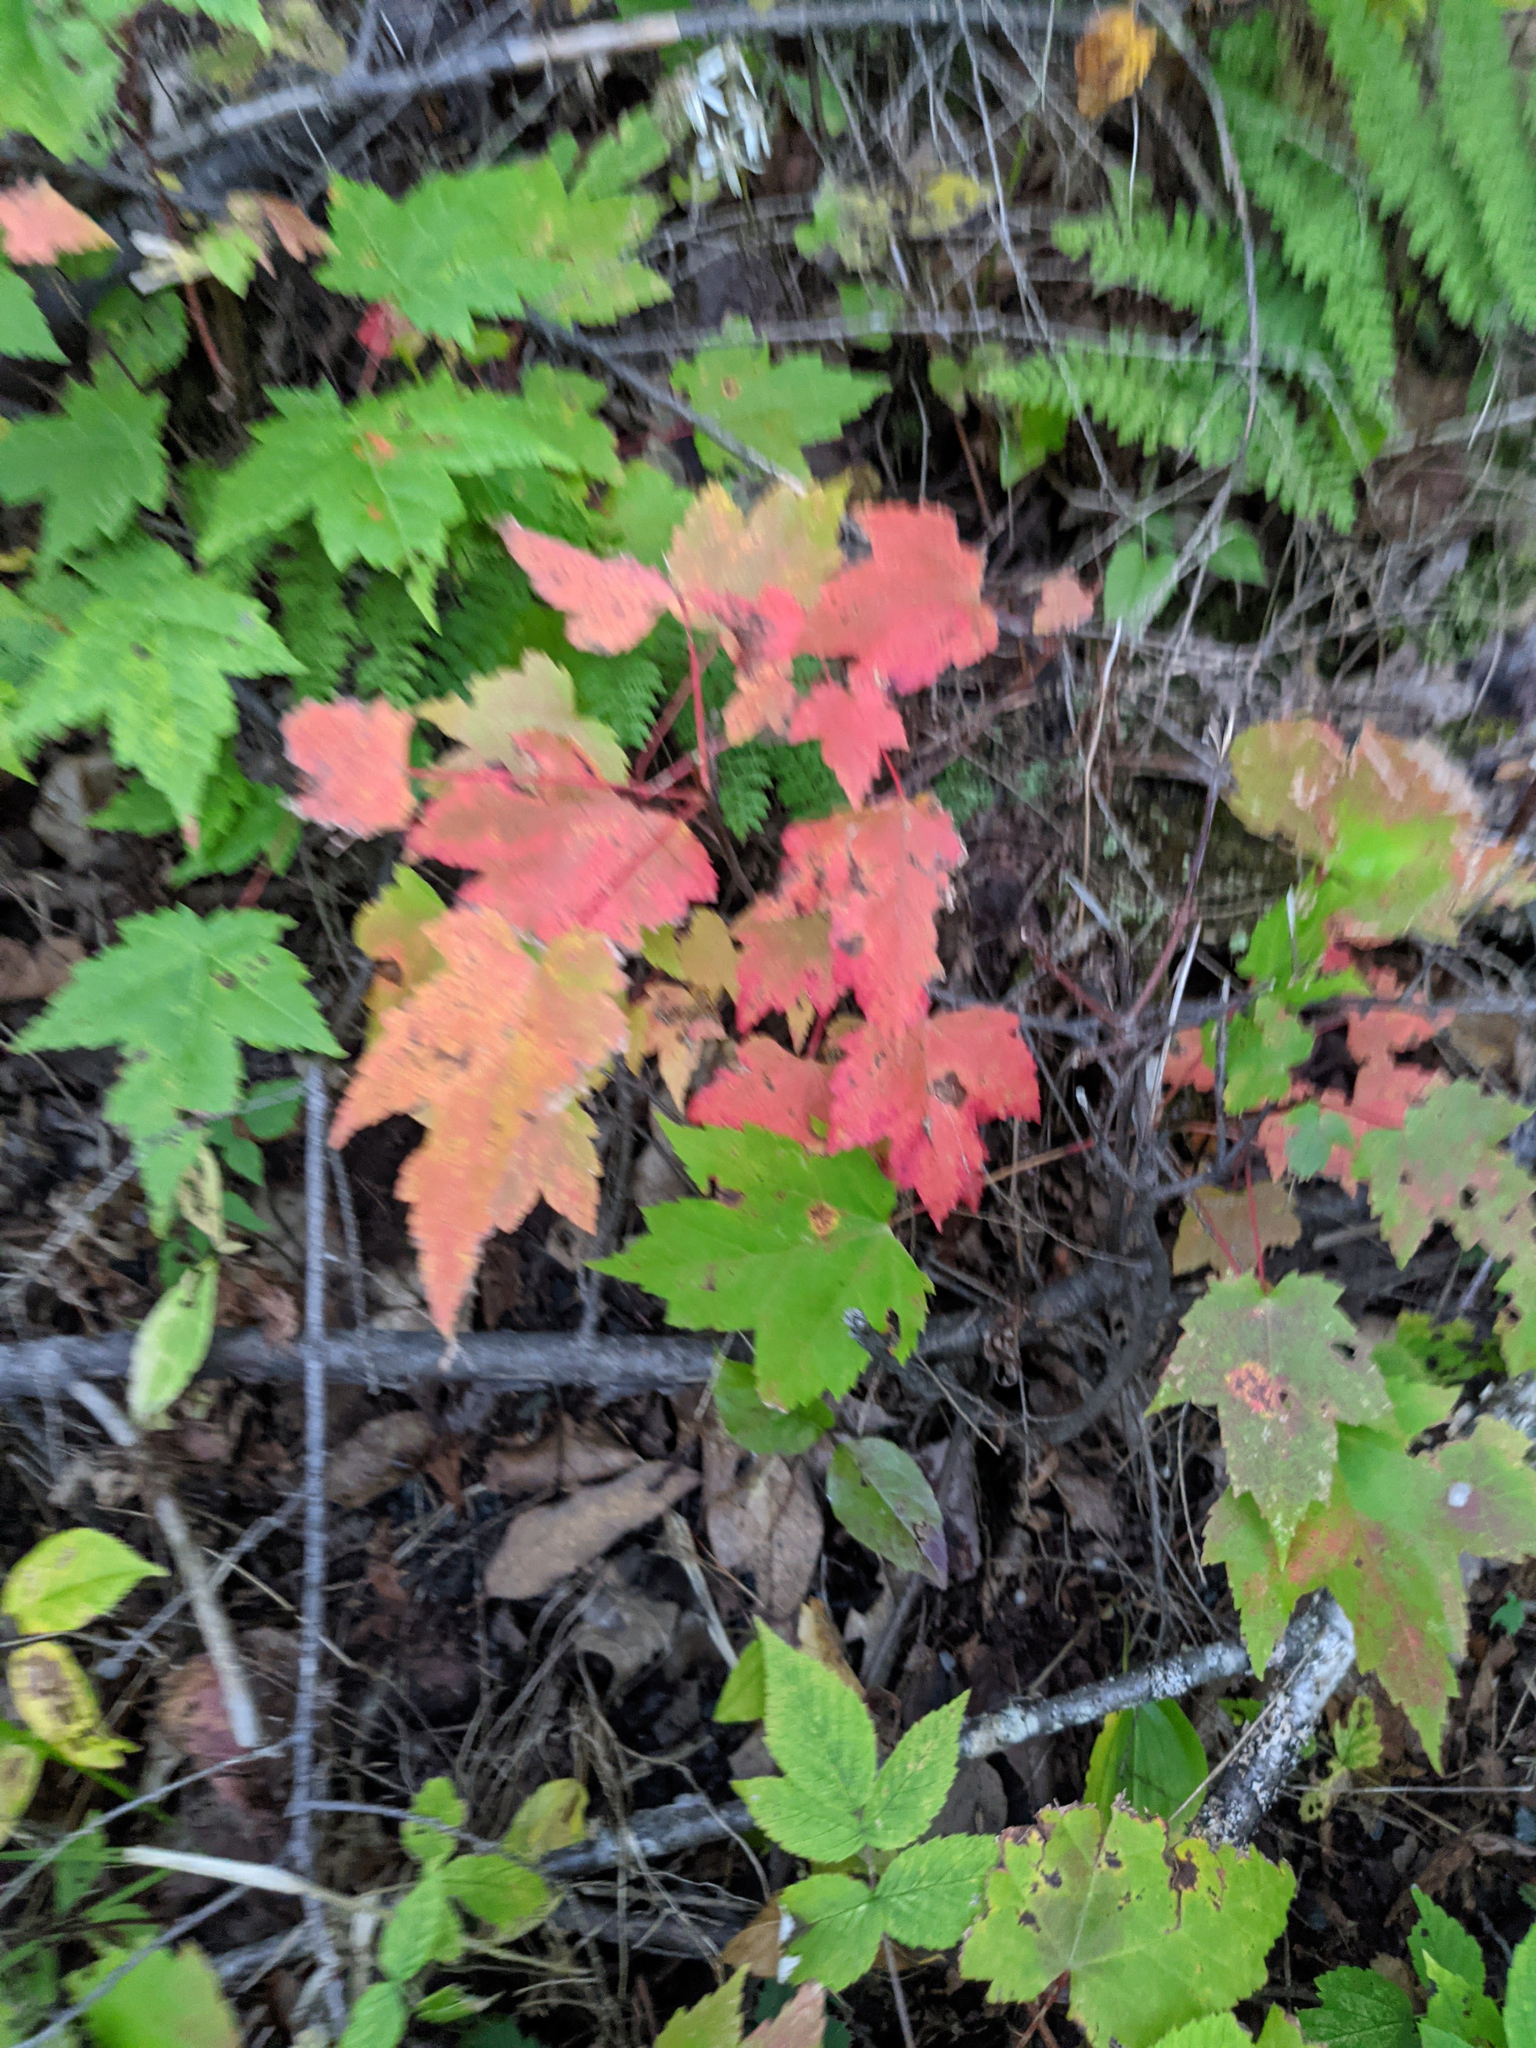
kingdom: Plantae
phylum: Tracheophyta
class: Magnoliopsida
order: Sapindales
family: Sapindaceae
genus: Acer
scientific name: Acer rubrum
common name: Red maple
